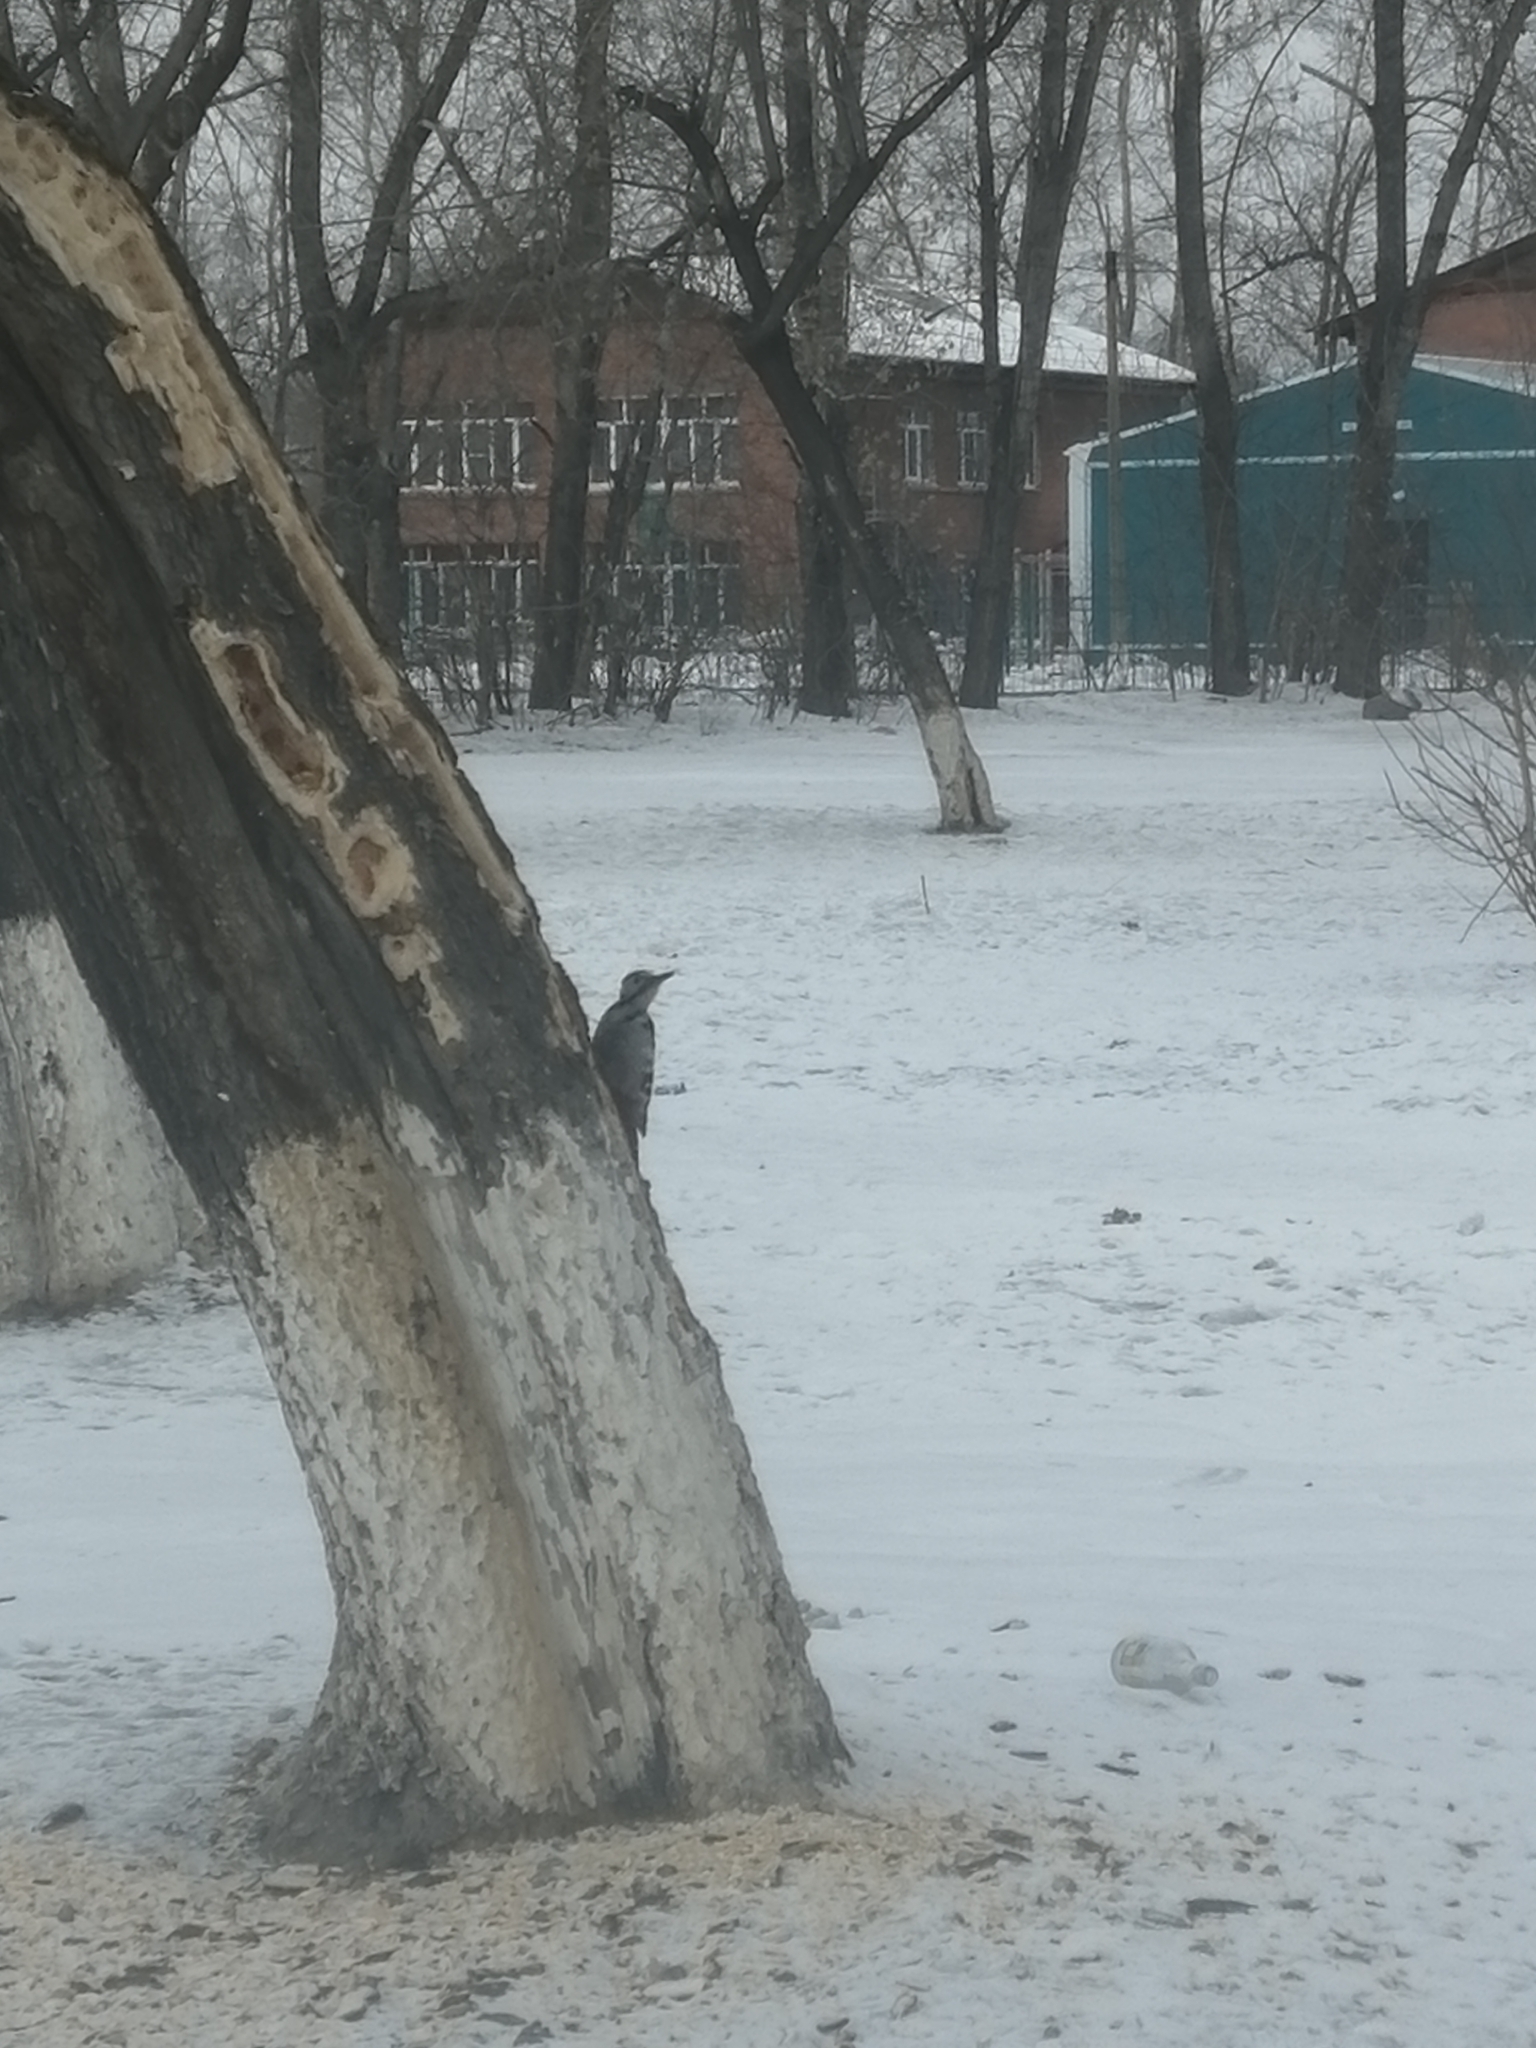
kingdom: Animalia
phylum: Chordata
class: Aves
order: Piciformes
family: Picidae
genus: Dendrocopos
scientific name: Dendrocopos leucotos
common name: White-backed woodpecker
